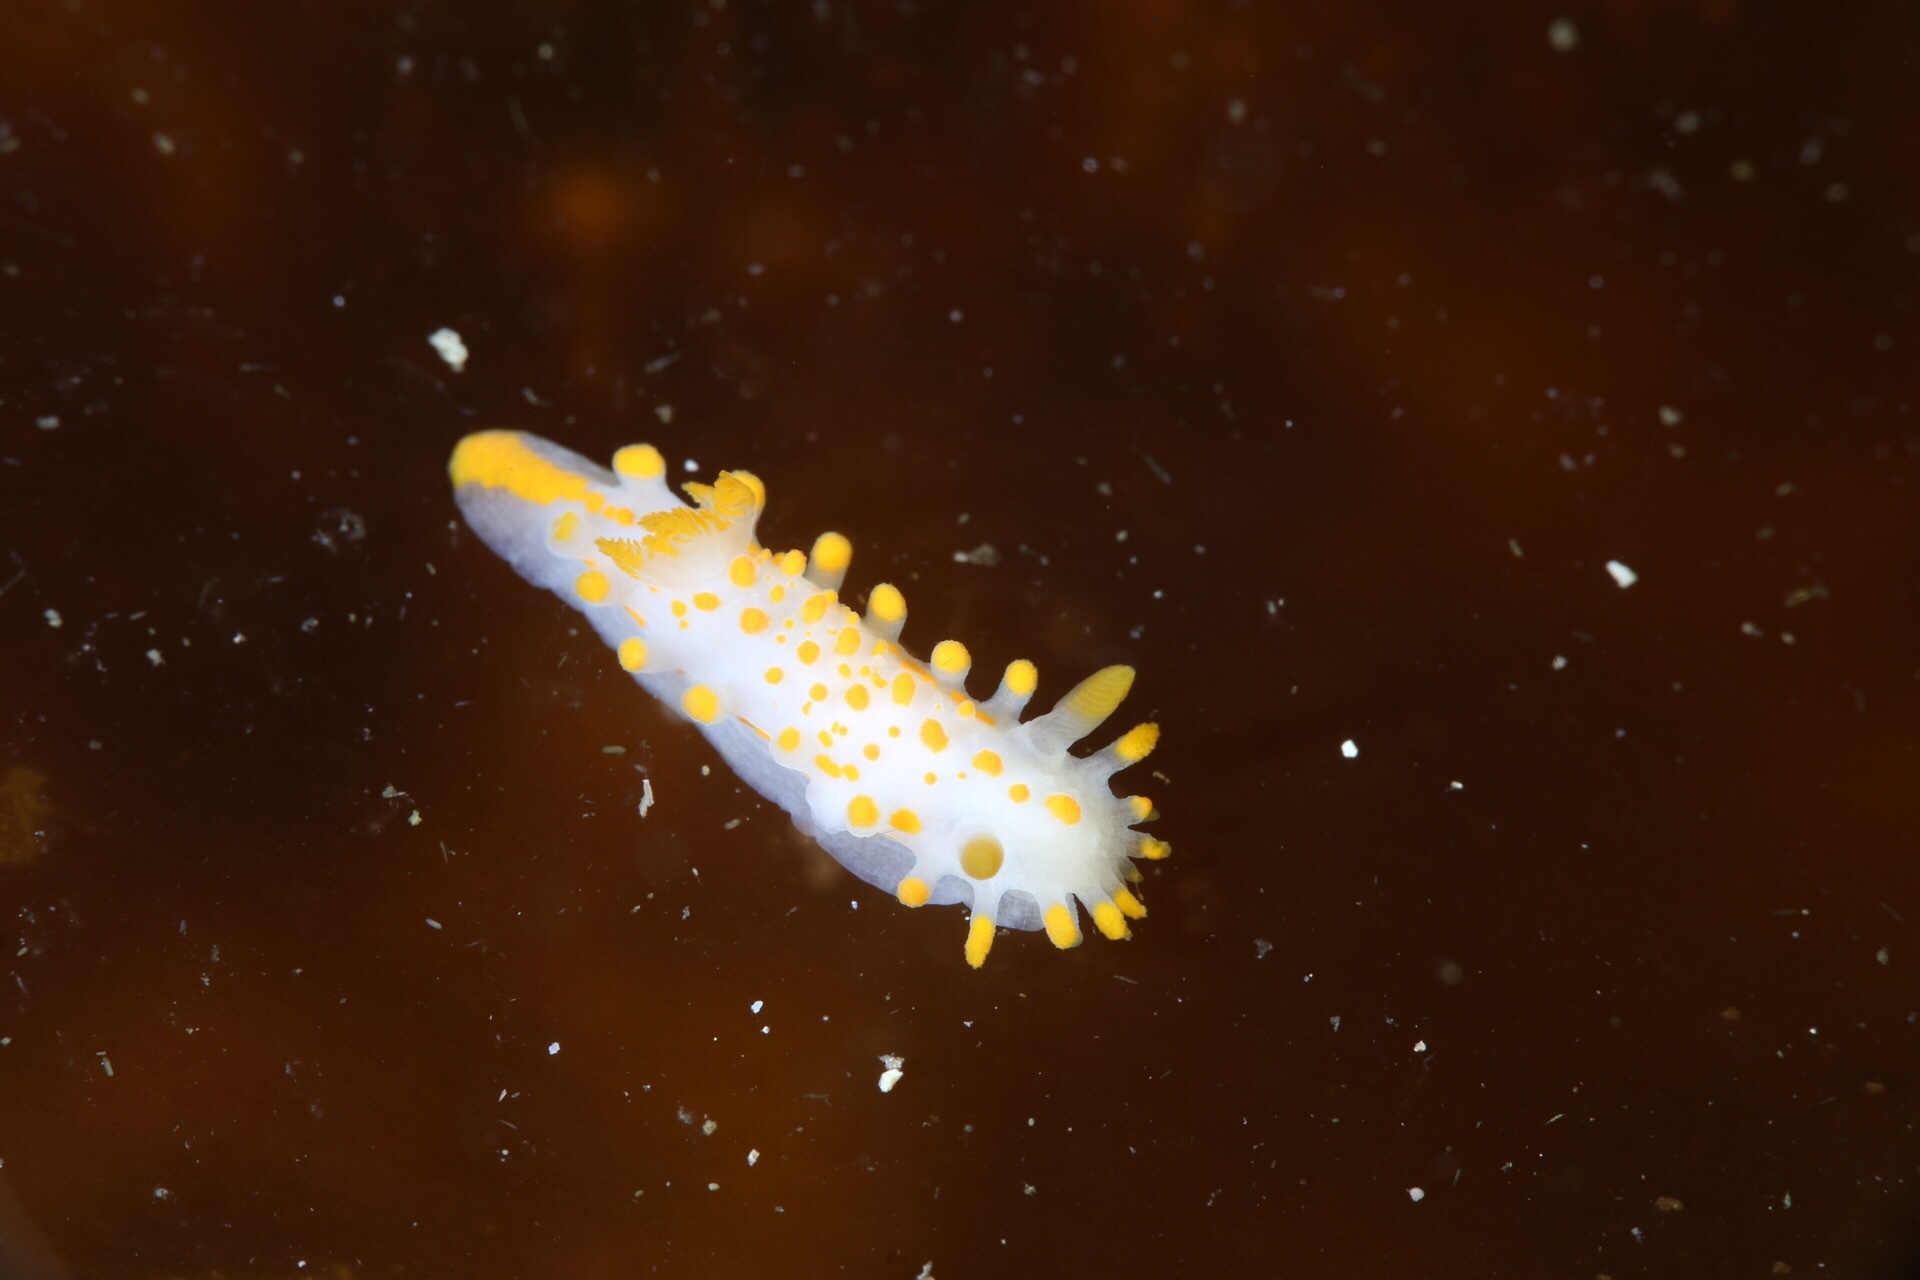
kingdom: Animalia
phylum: Mollusca
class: Gastropoda
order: Nudibranchia
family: Polyceridae
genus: Limacia
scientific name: Limacia clavigera
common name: Orange-clubbed sea slug
